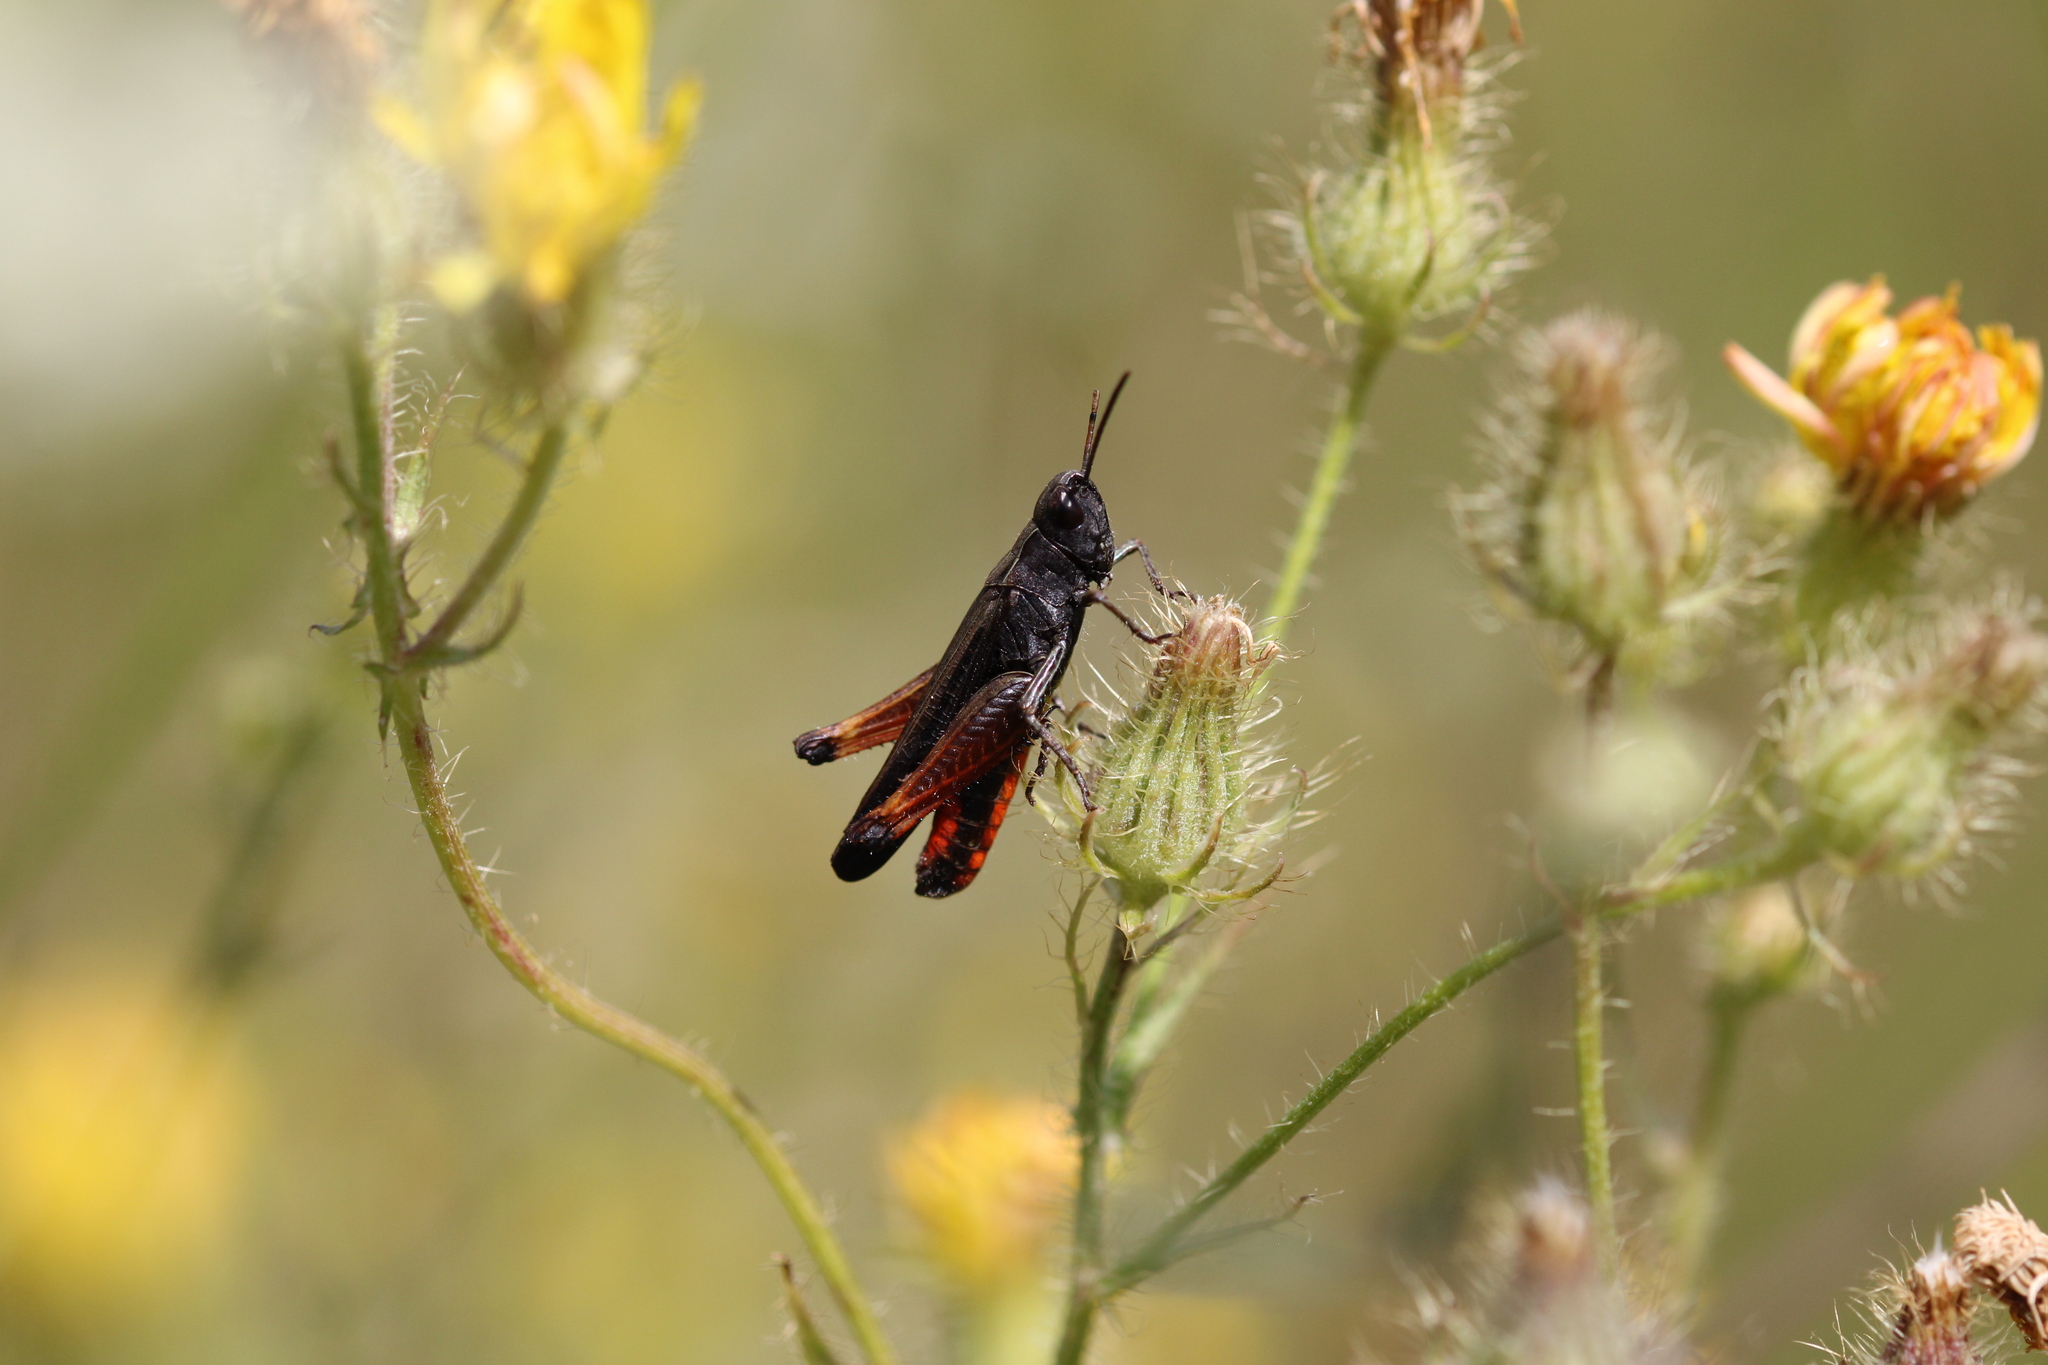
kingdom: Animalia
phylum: Arthropoda
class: Insecta
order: Orthoptera
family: Acrididae
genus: Omocestus
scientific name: Omocestus rufipes
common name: Woodland grasshopper
